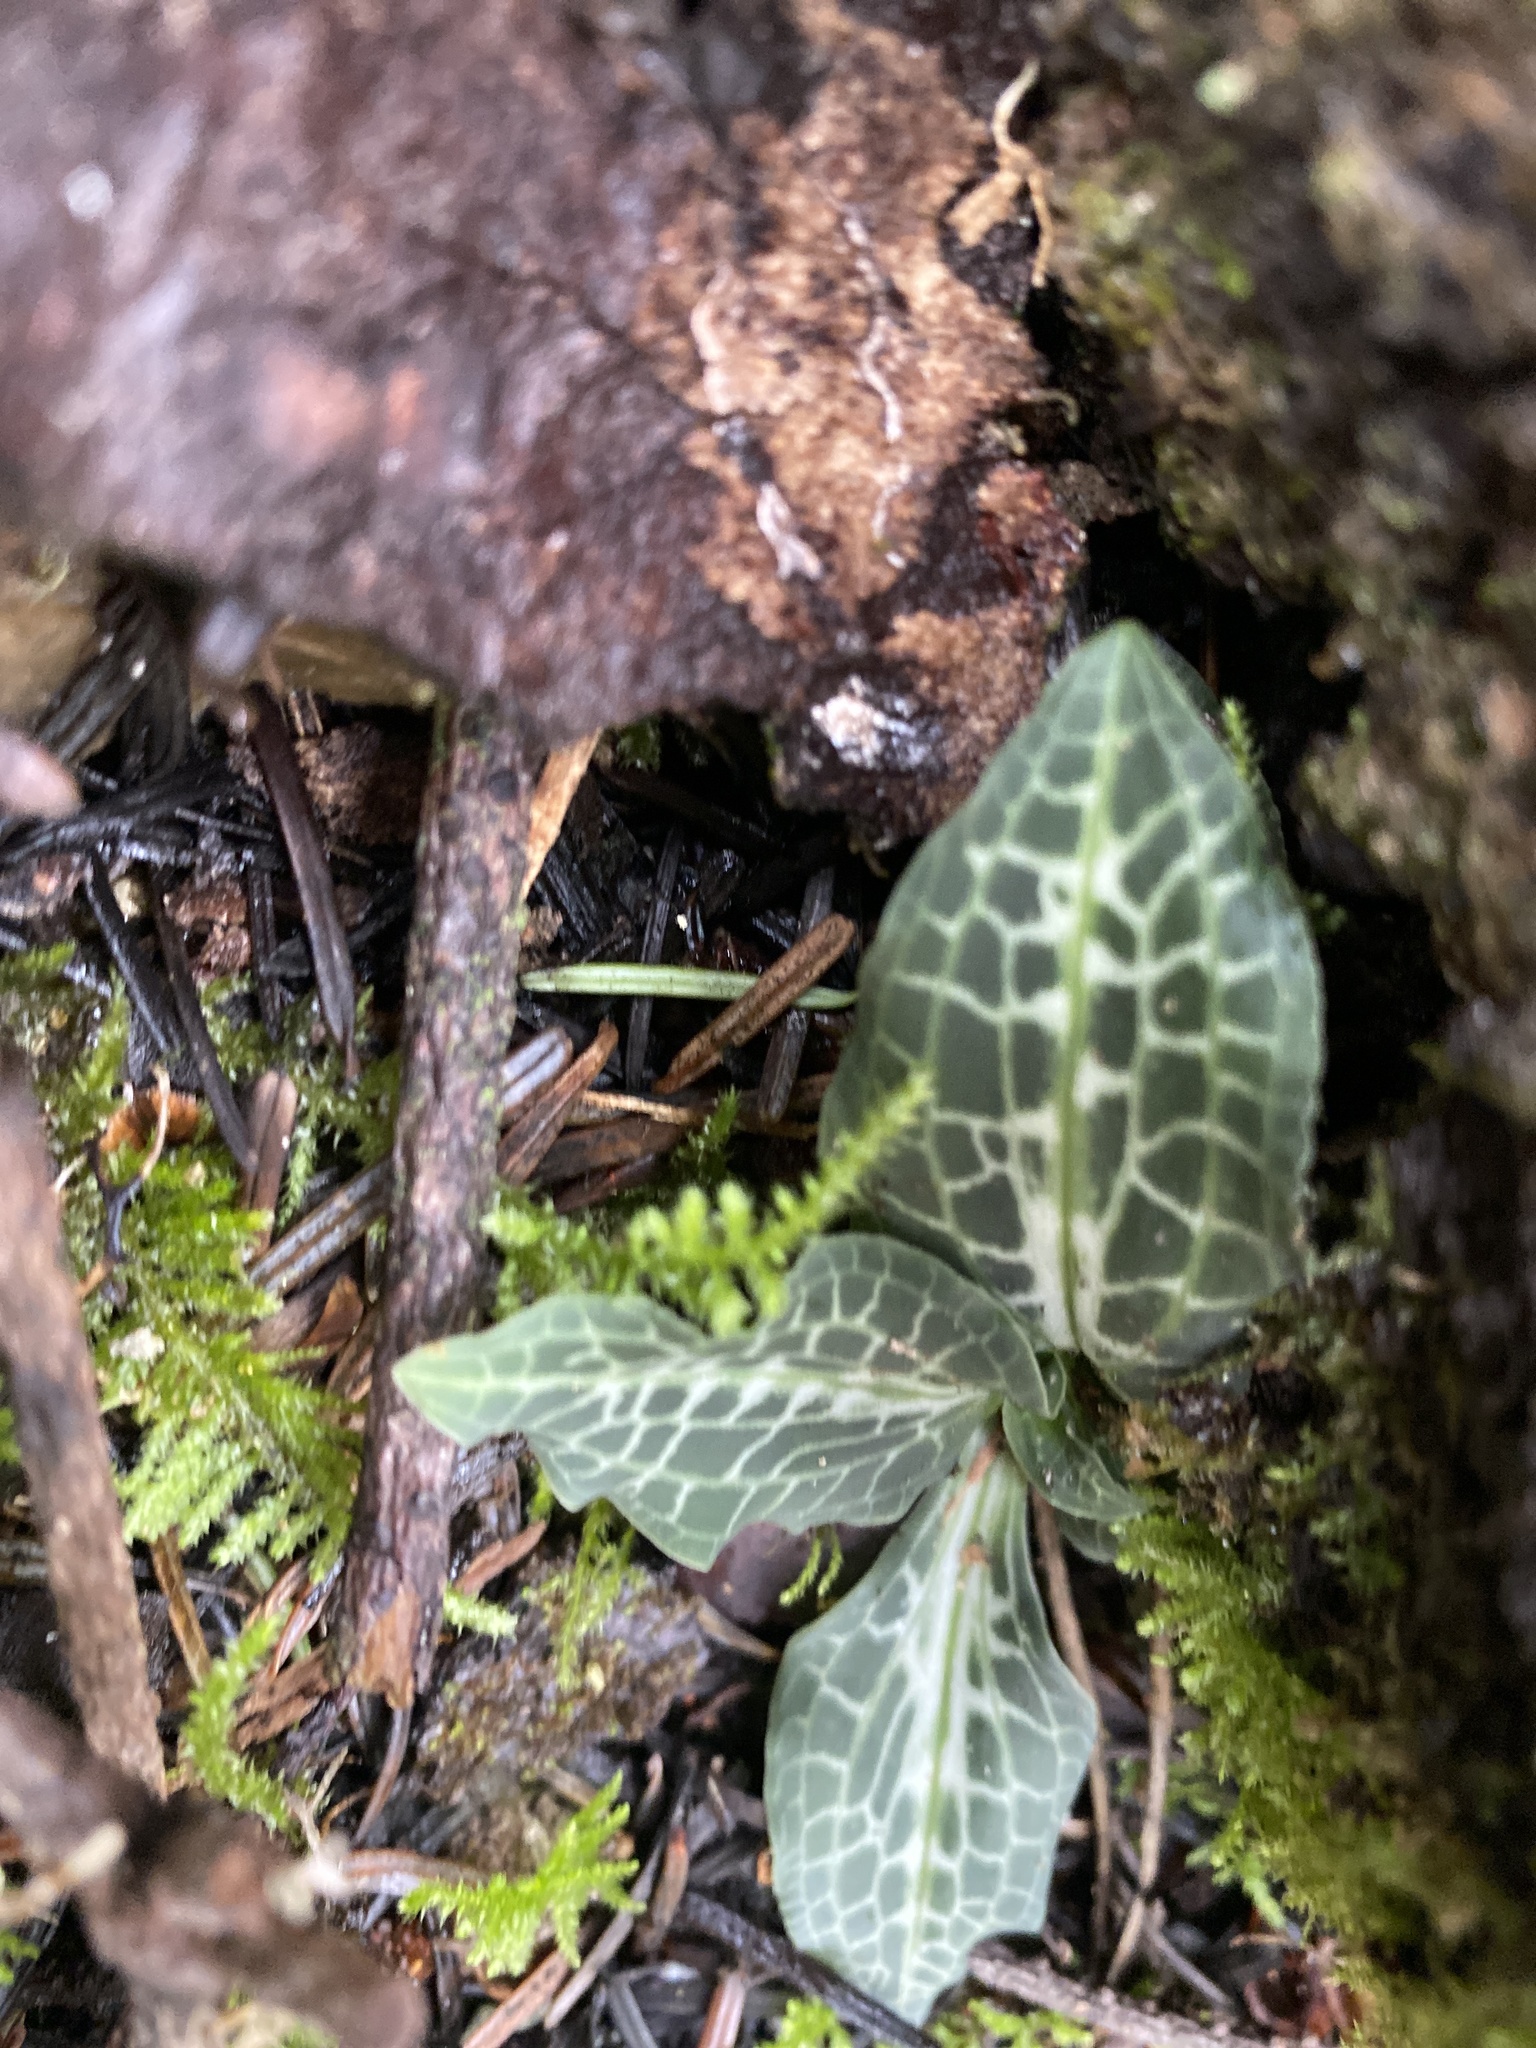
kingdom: Plantae
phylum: Tracheophyta
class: Liliopsida
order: Asparagales
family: Orchidaceae
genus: Goodyera
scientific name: Goodyera oblongifolia
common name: Giant rattlesnake-plantain
